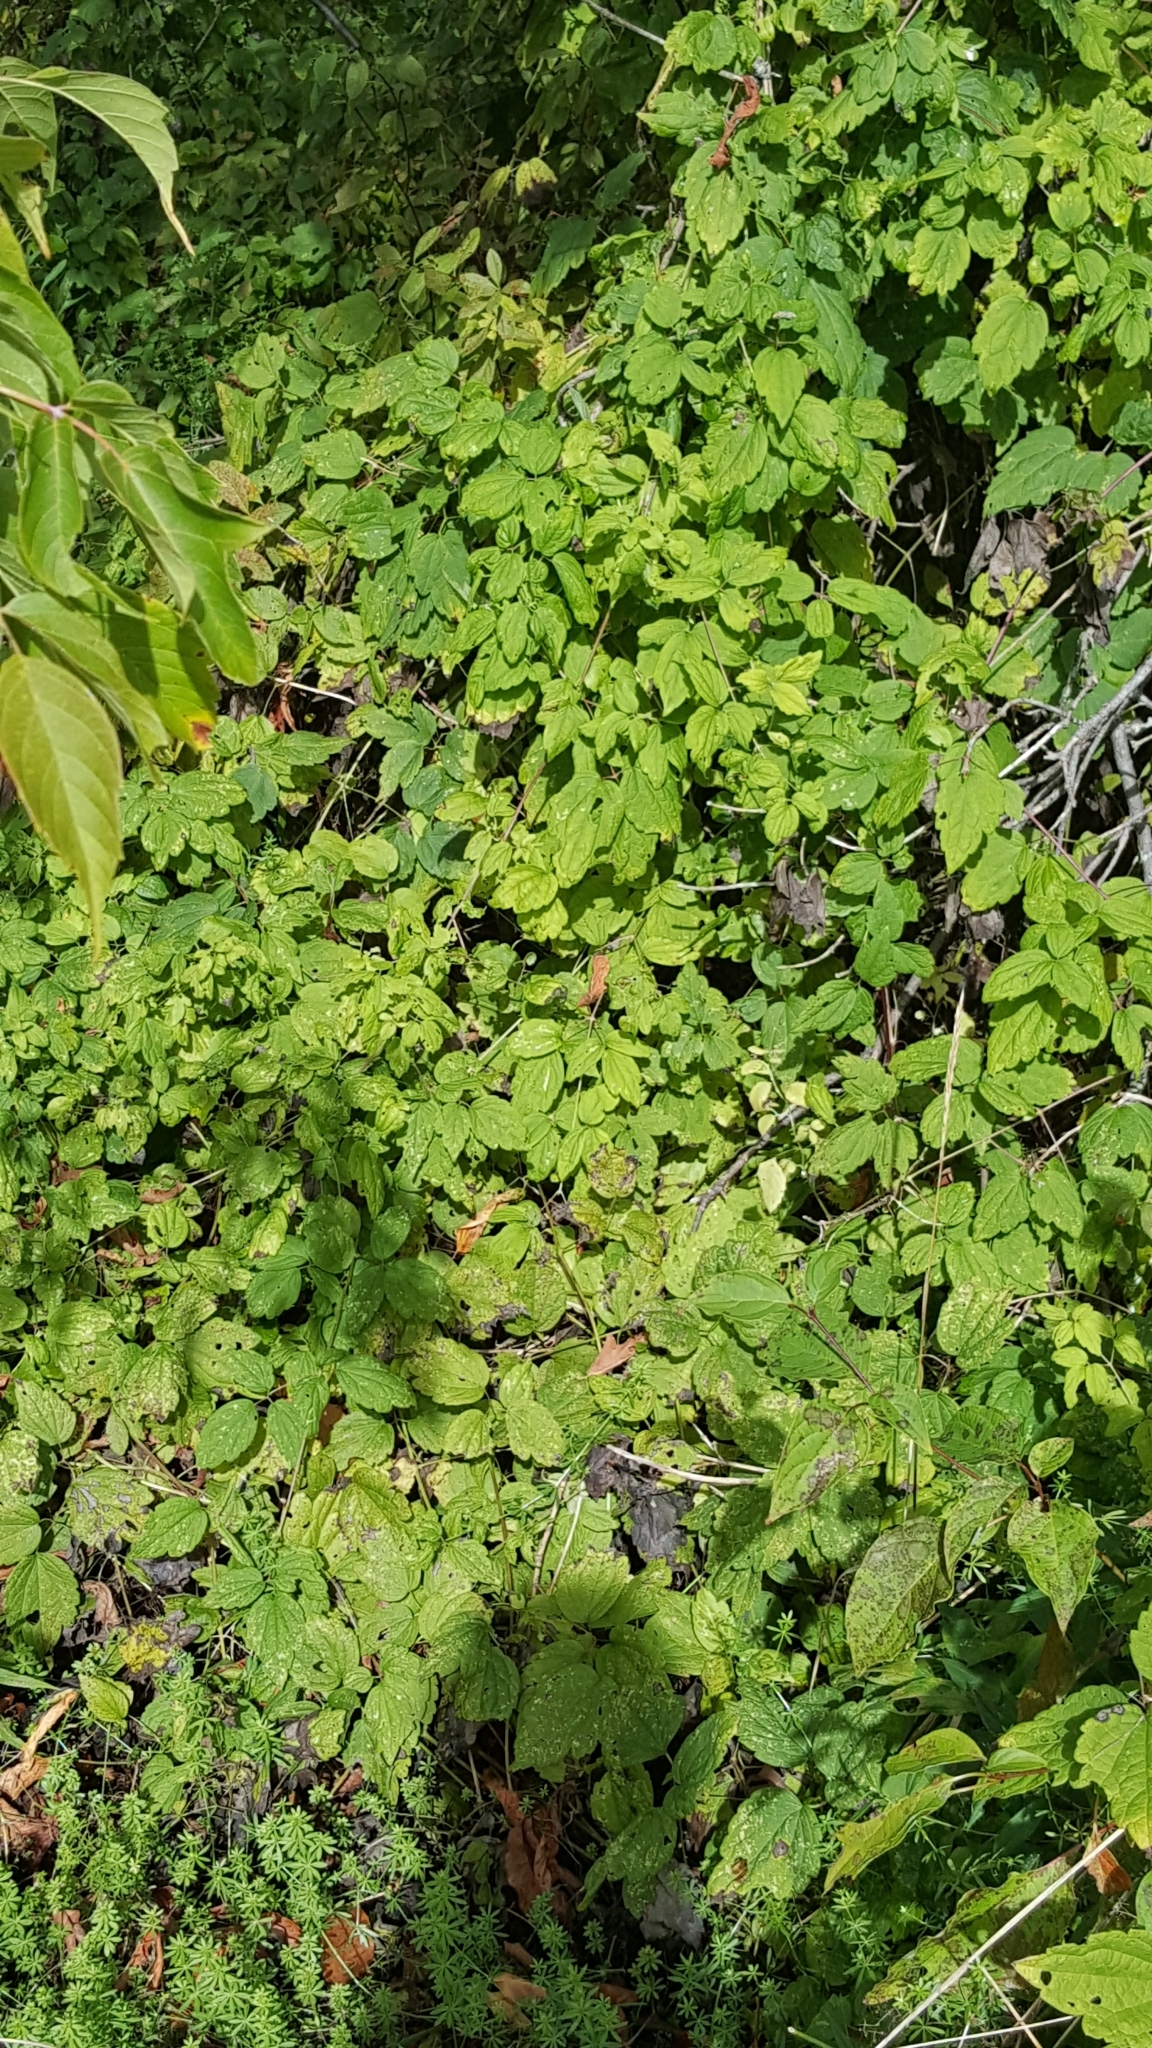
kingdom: Plantae
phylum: Tracheophyta
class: Magnoliopsida
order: Ranunculales
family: Ranunculaceae
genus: Clematis
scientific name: Clematis virginiana
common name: Virgin's-bower
